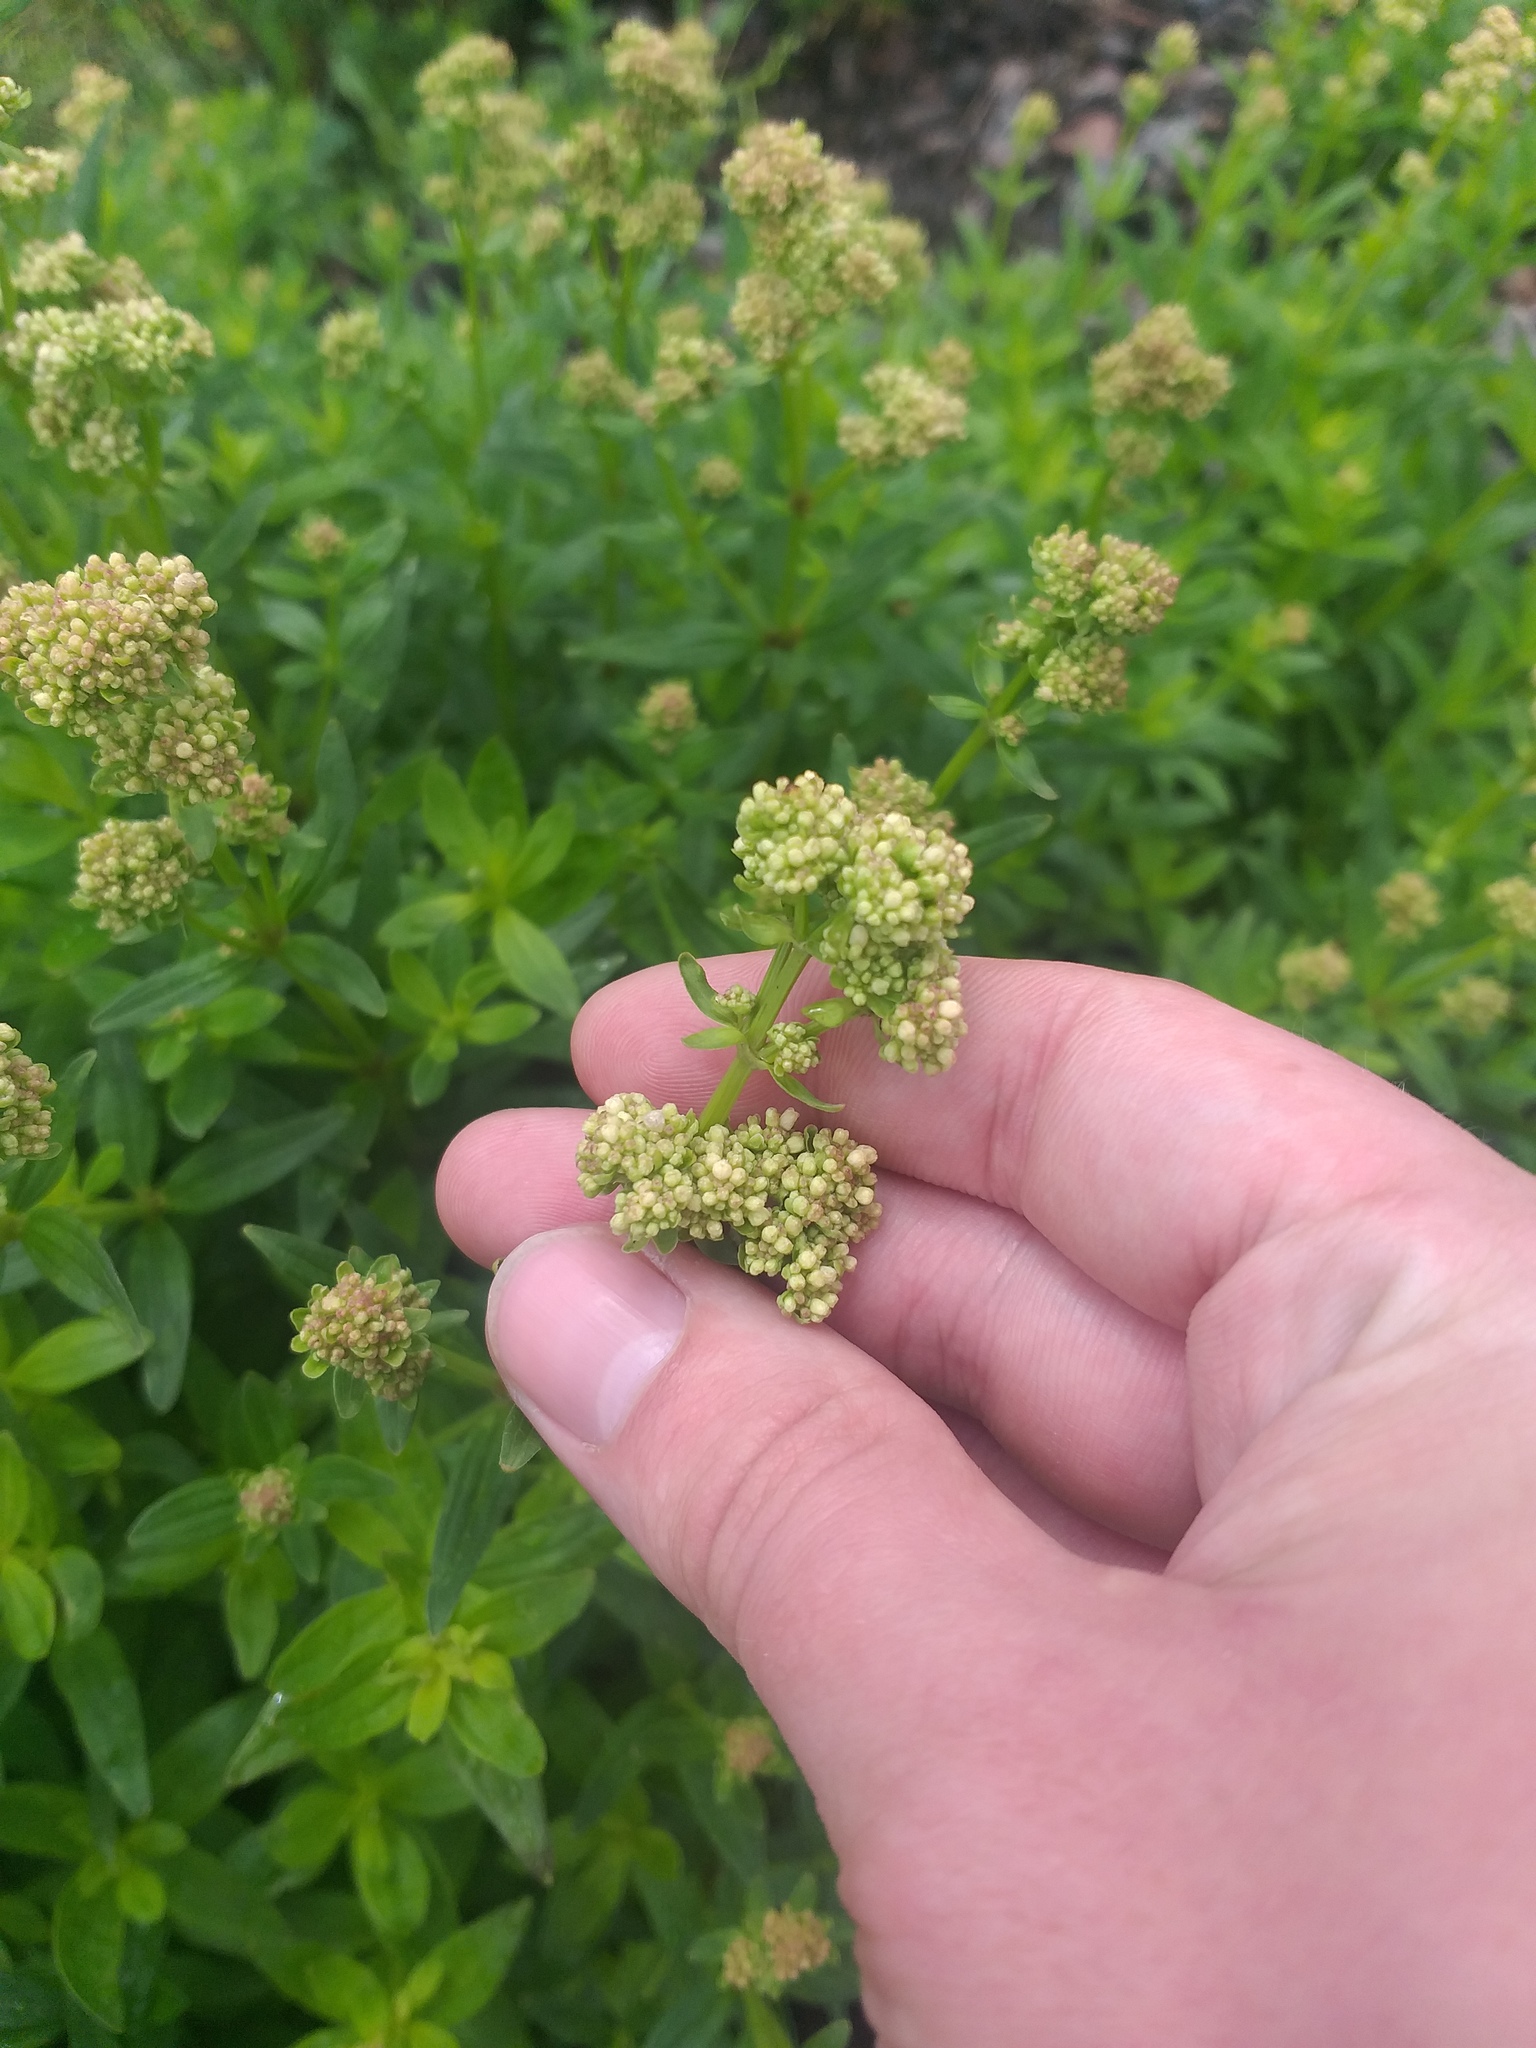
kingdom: Plantae
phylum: Tracheophyta
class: Magnoliopsida
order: Gentianales
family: Rubiaceae
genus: Galium
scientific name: Galium rubioides
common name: European bedstraw
